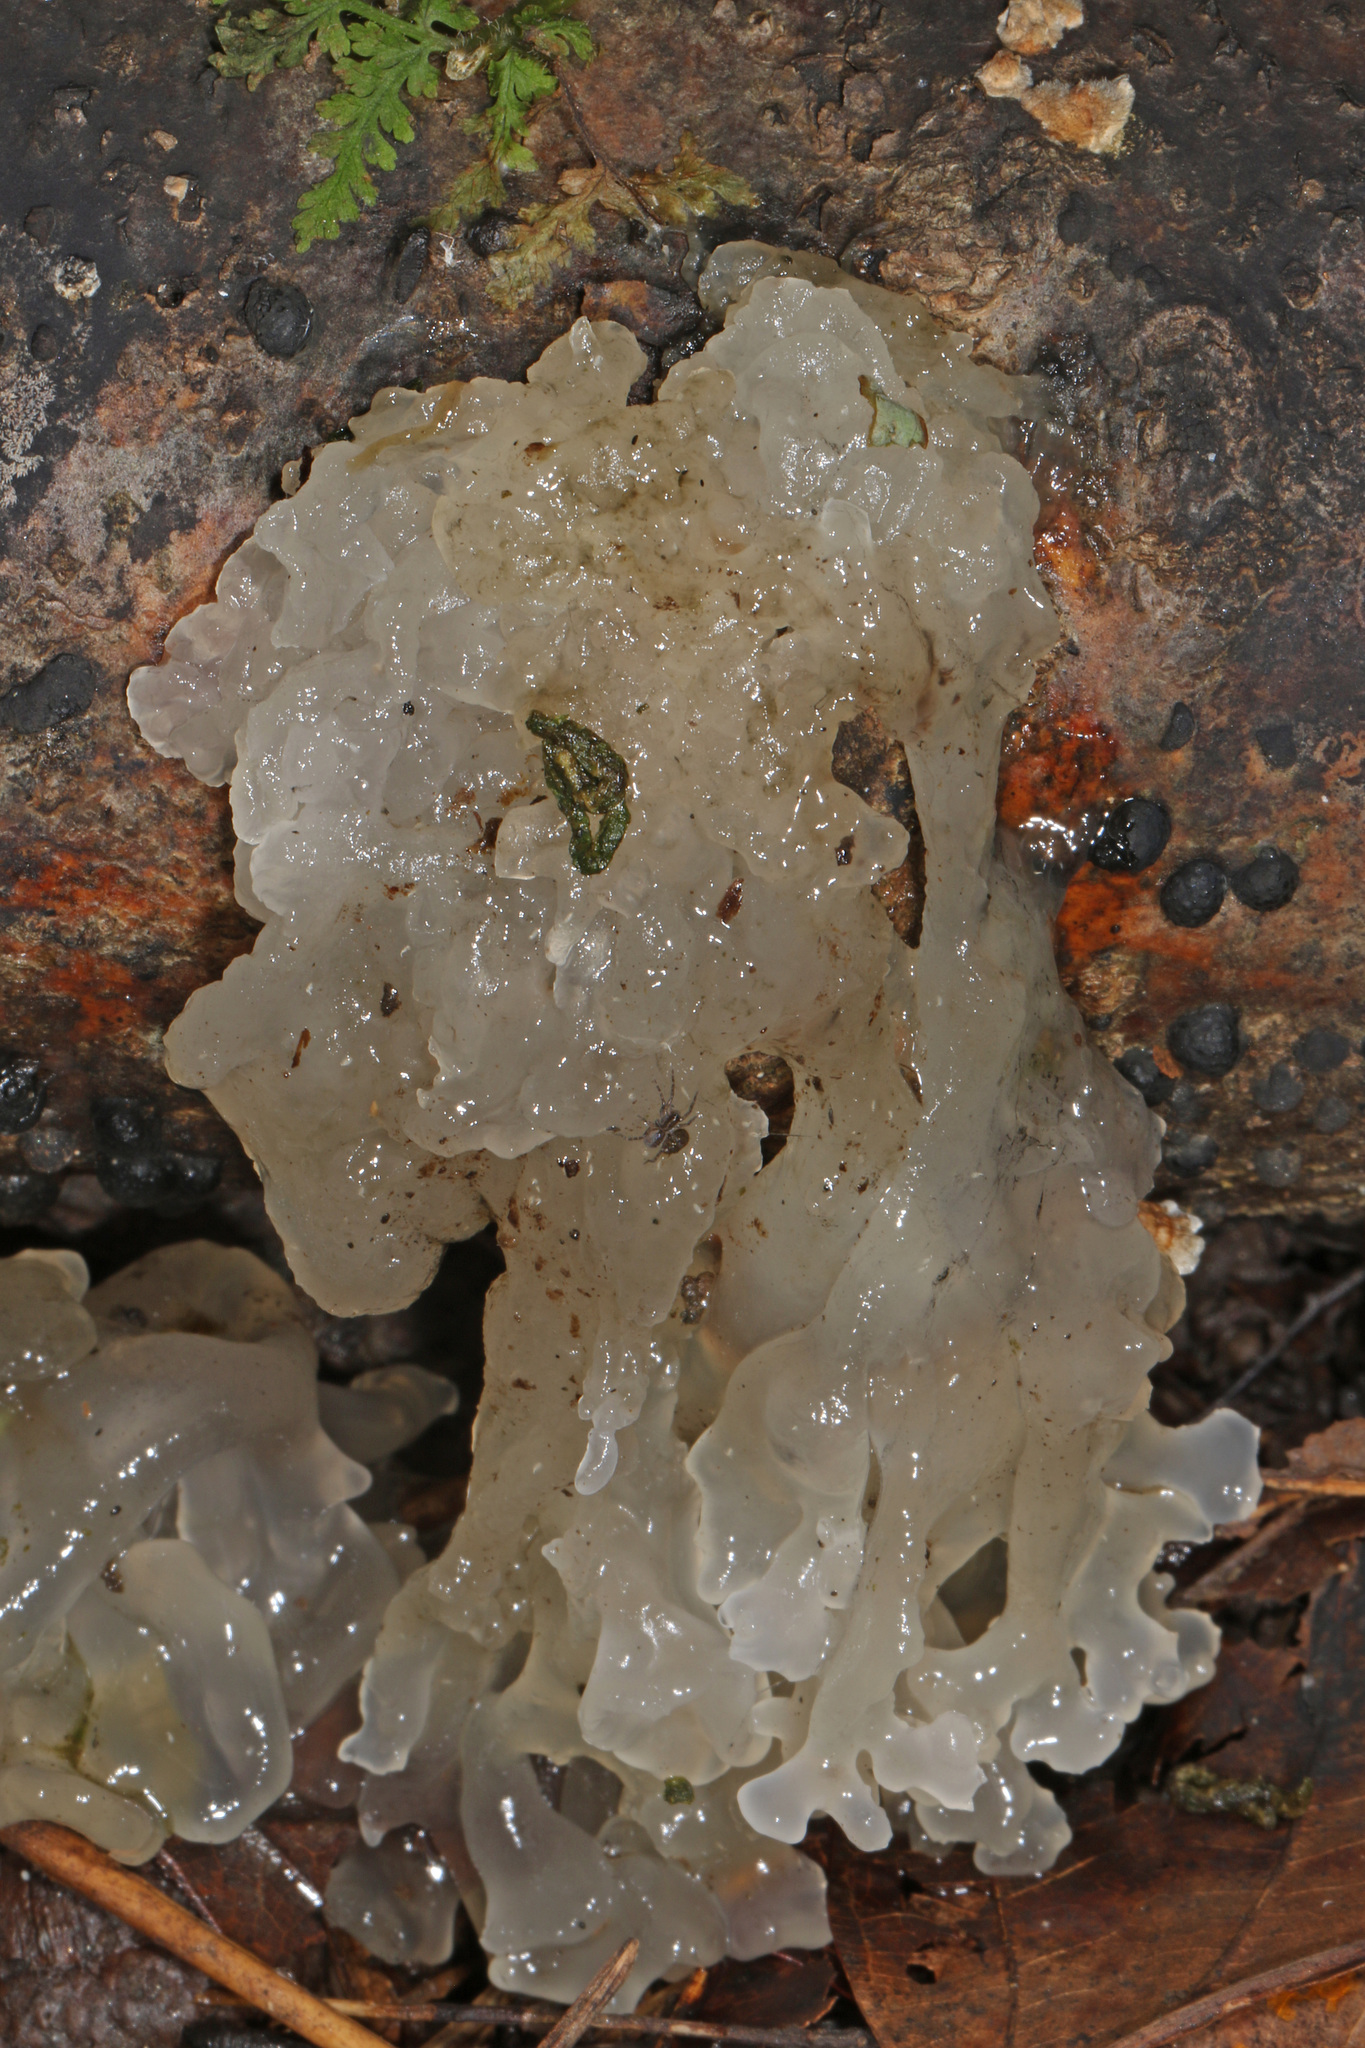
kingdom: Fungi
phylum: Basidiomycota
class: Tremellomycetes
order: Tremellales
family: Tremellaceae
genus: Tremella
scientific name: Tremella fuciformis
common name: Snow fungus
